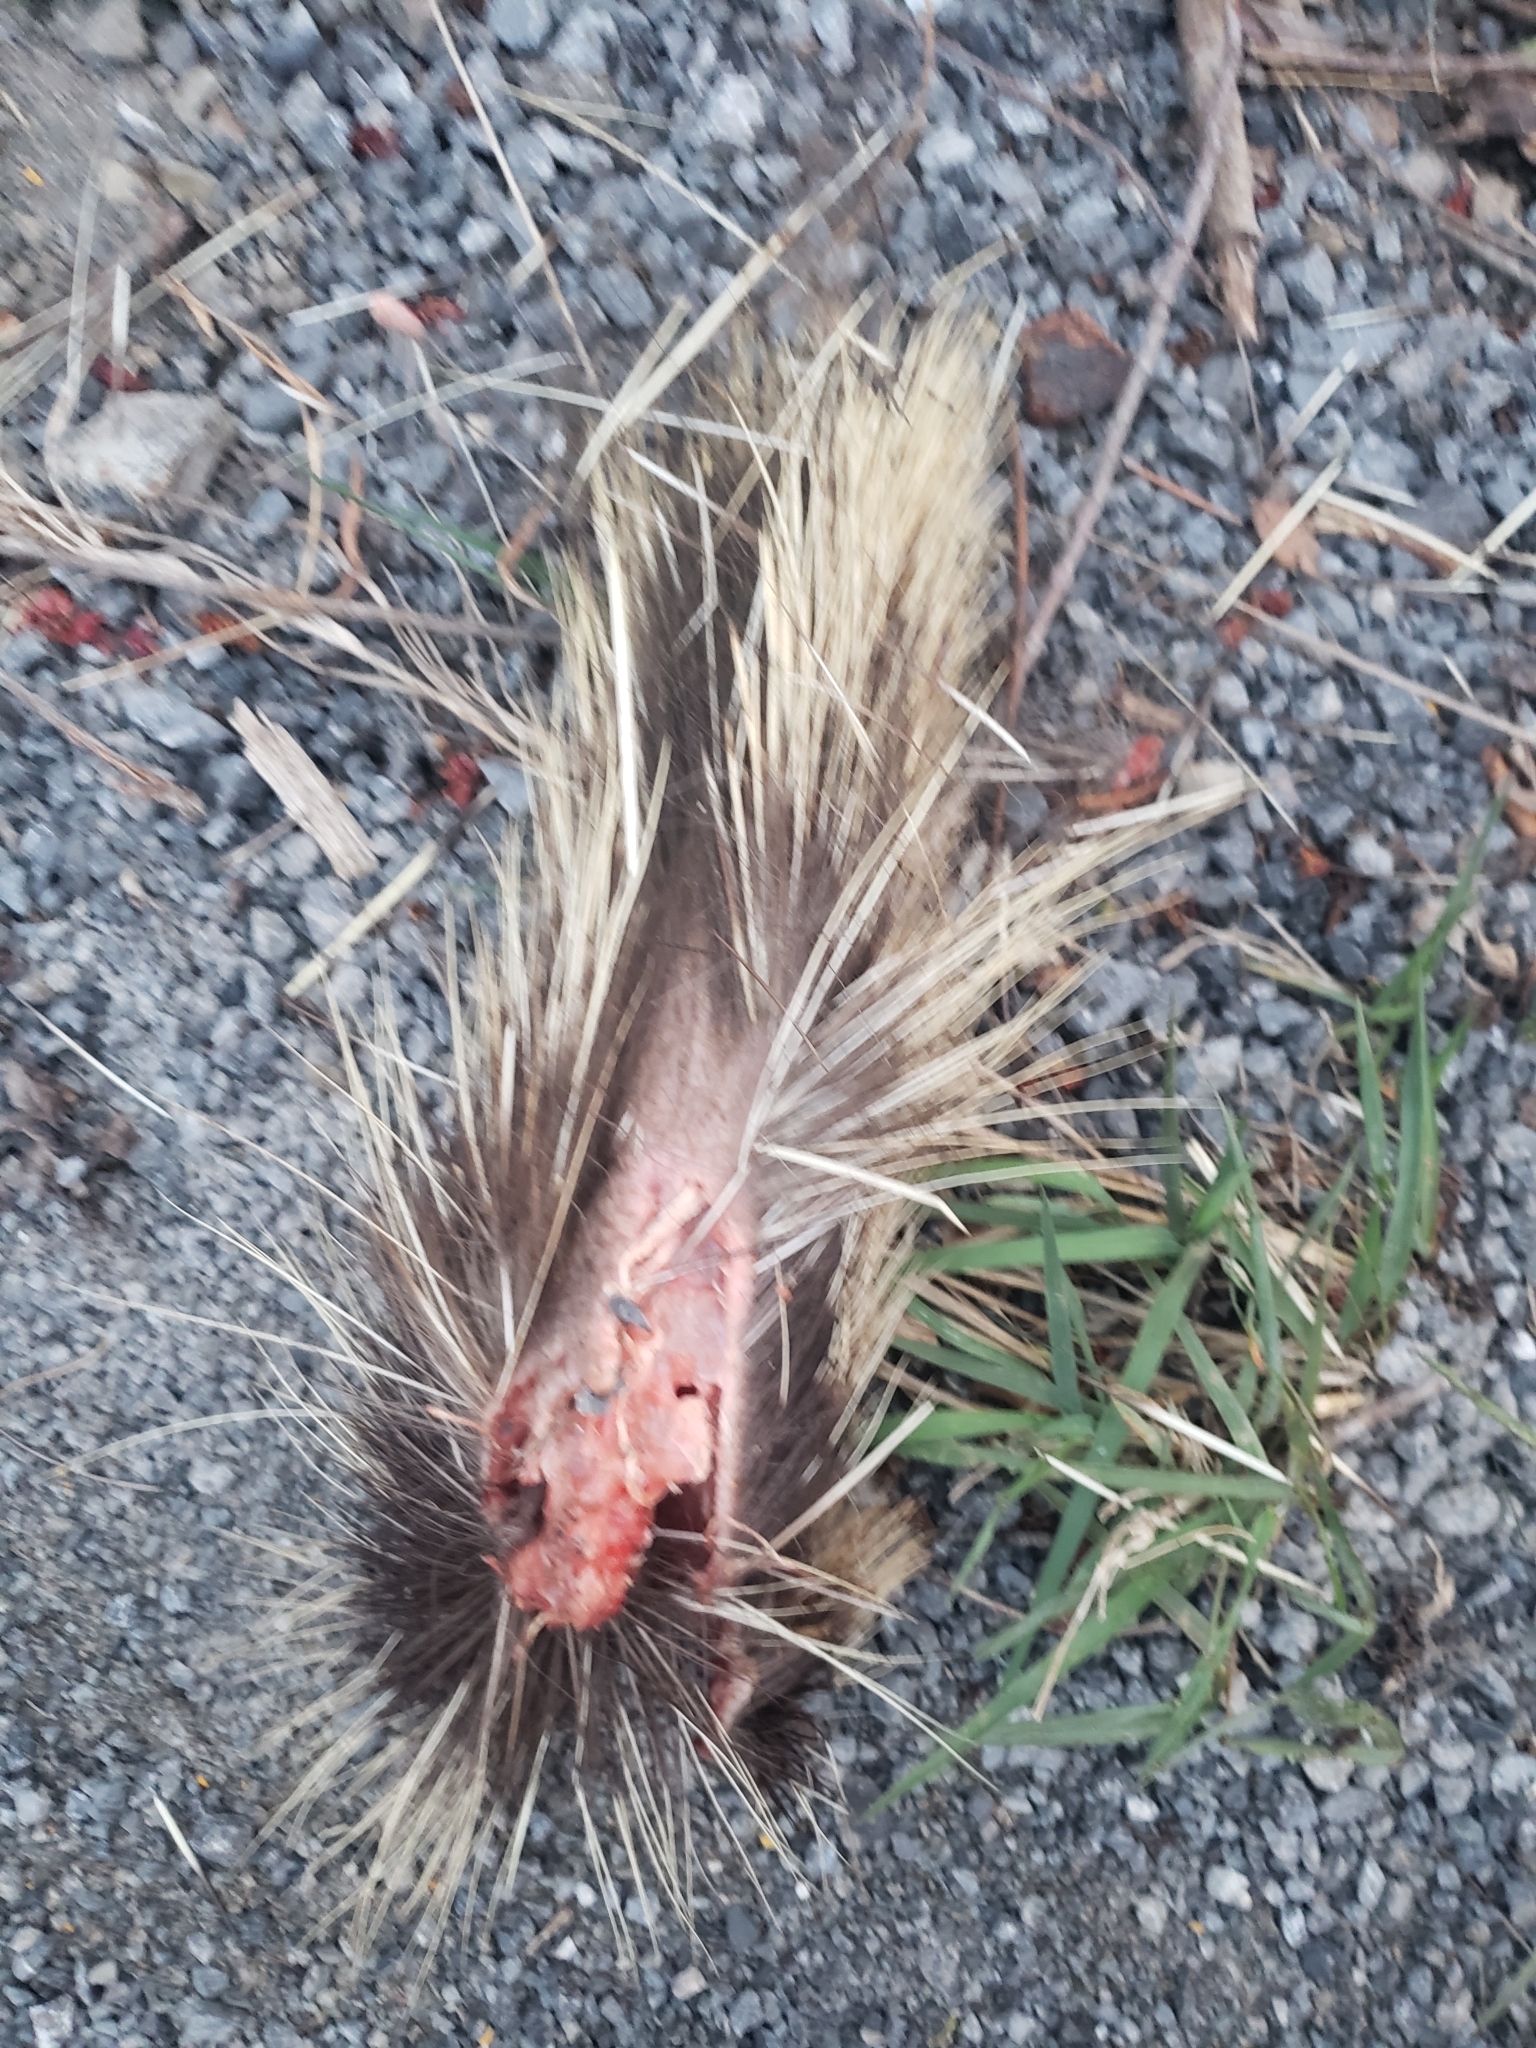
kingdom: Animalia
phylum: Chordata
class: Mammalia
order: Rodentia
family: Erethizontidae
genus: Erethizon
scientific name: Erethizon dorsatus
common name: North american porcupine
